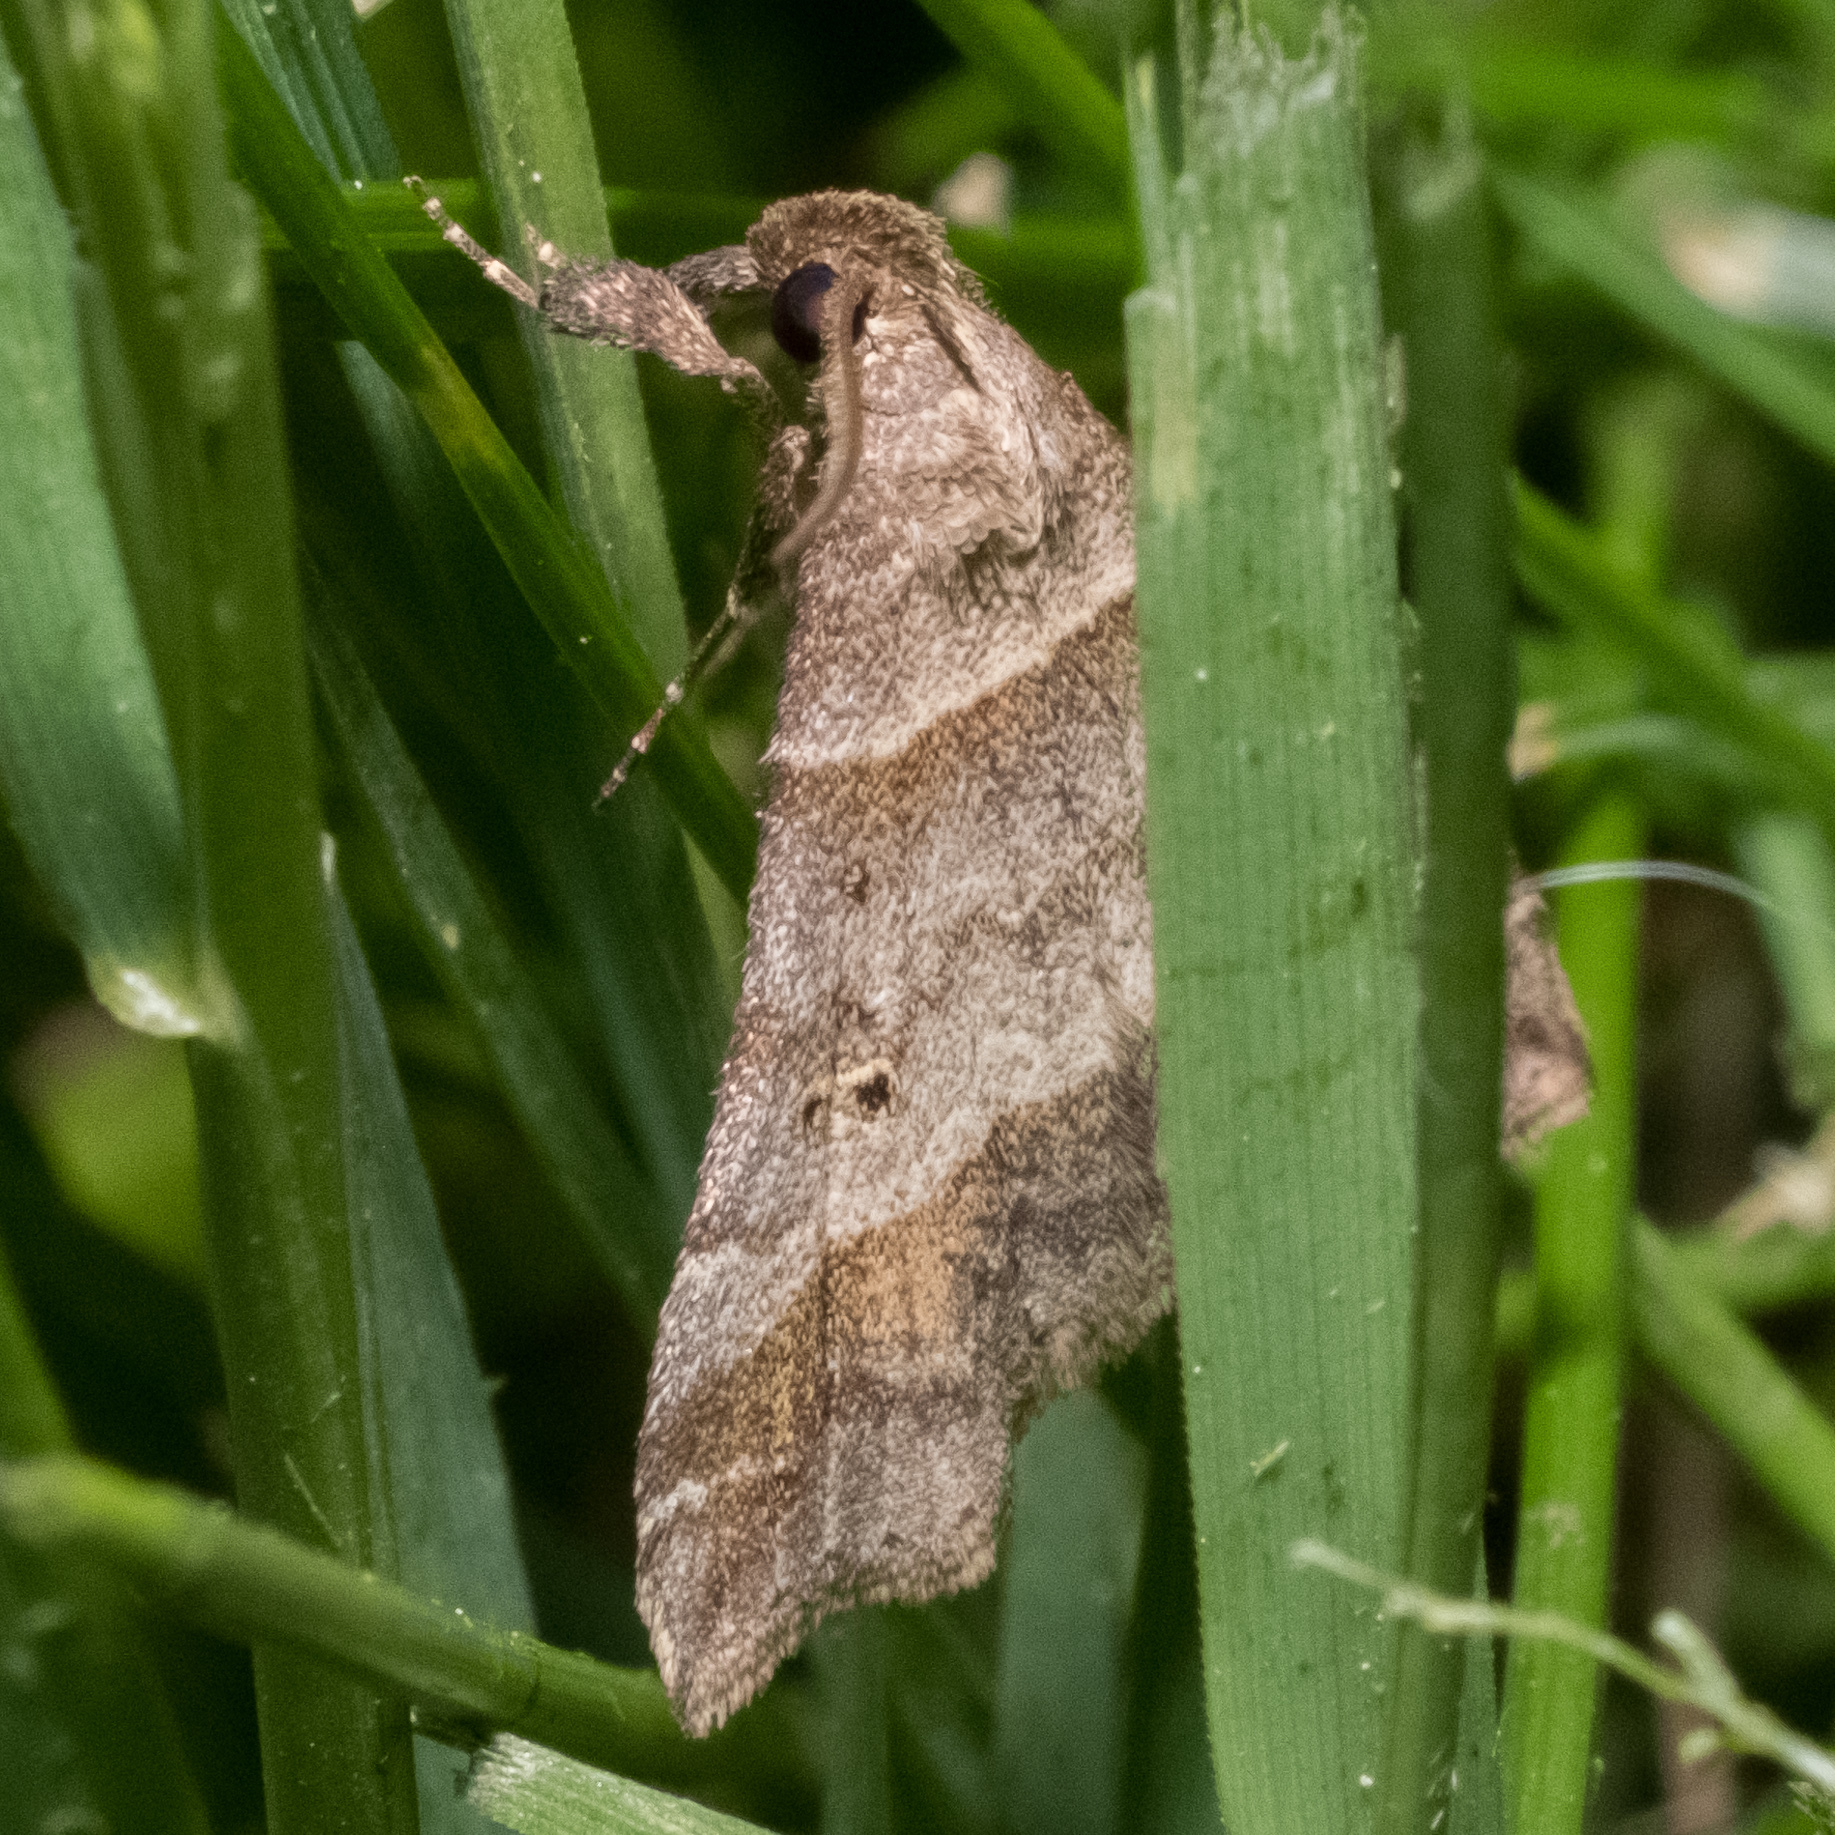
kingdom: Animalia
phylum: Arthropoda
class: Insecta
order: Lepidoptera
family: Erebidae
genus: Phaeolita
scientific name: Phaeolita pyramusalis
